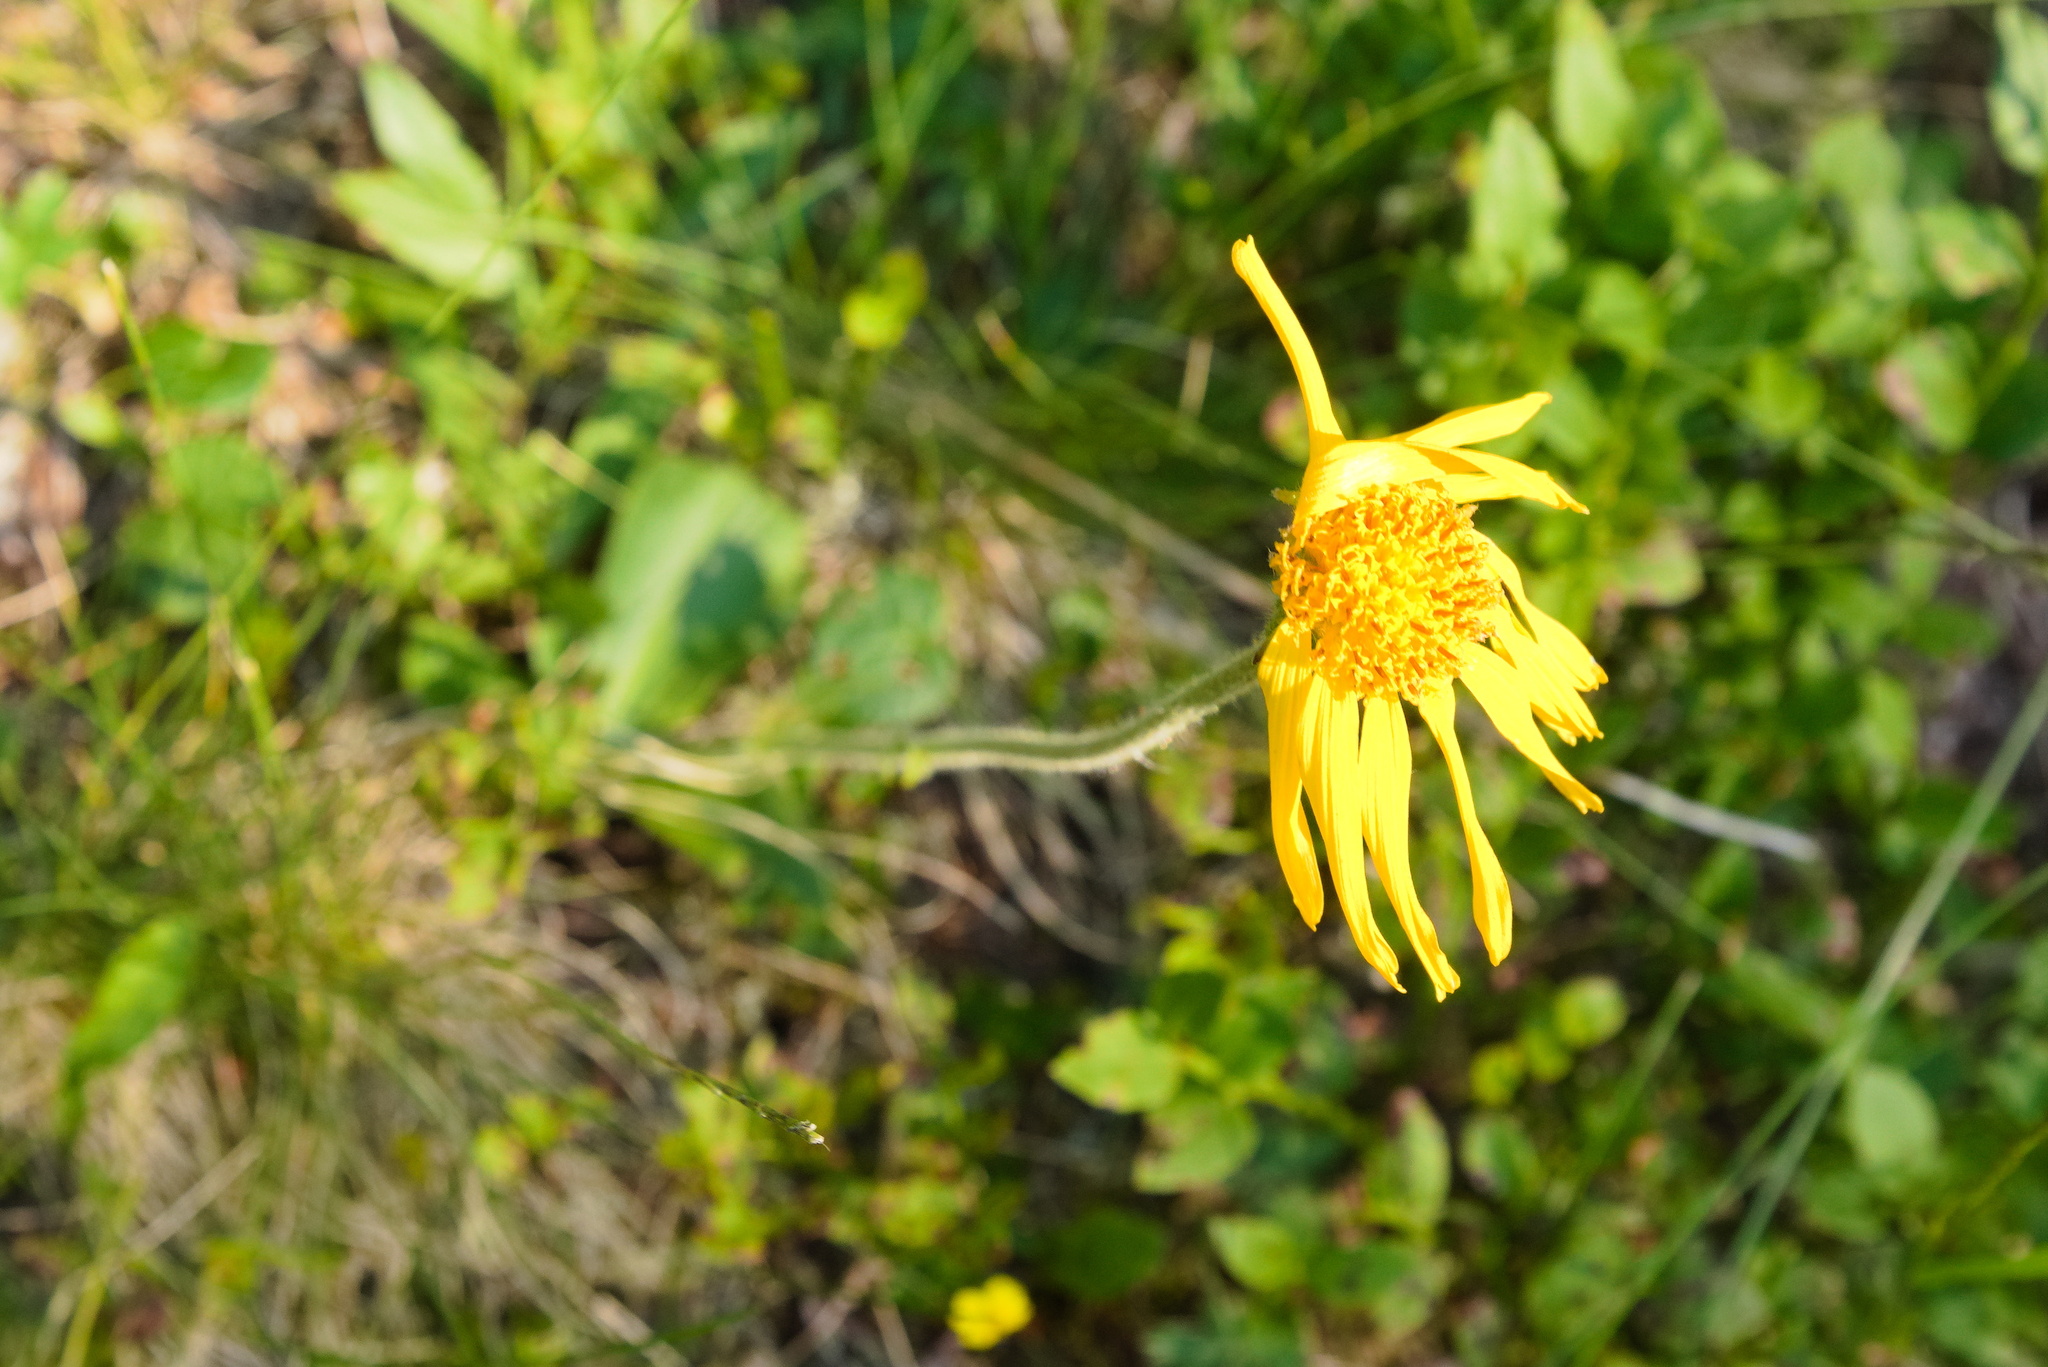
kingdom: Plantae
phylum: Tracheophyta
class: Magnoliopsida
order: Asterales
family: Asteraceae
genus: Arnica
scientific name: Arnica montana
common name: Leopard's bane
